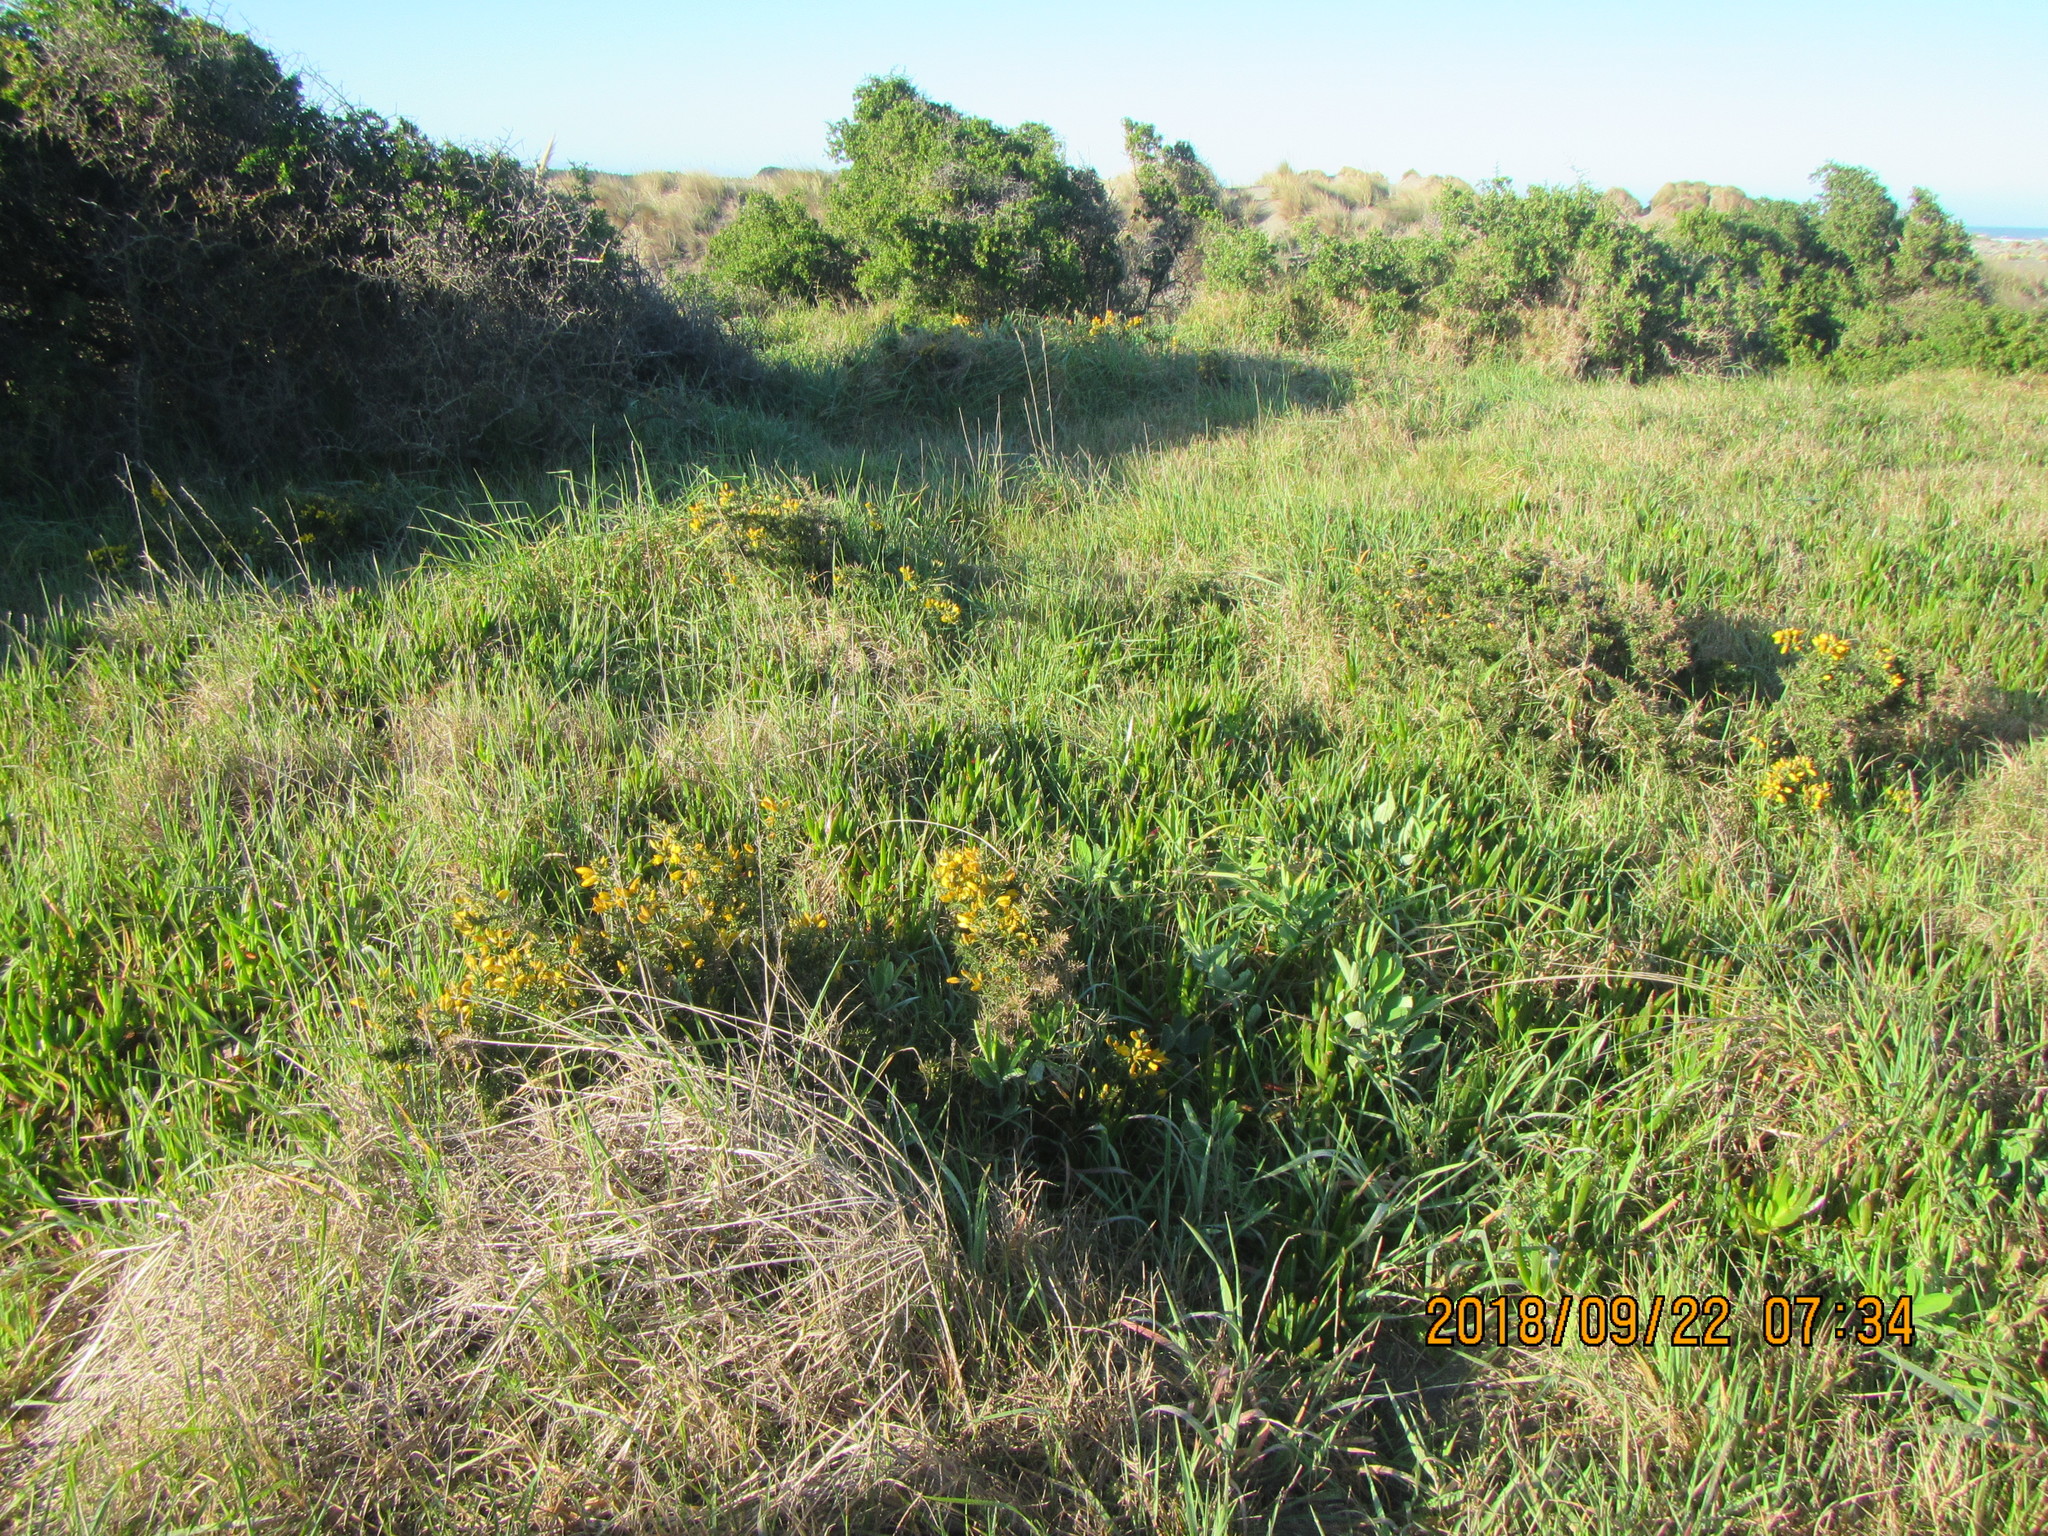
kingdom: Plantae
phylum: Tracheophyta
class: Magnoliopsida
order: Fabales
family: Fabaceae
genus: Ulex
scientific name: Ulex europaeus
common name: Common gorse
